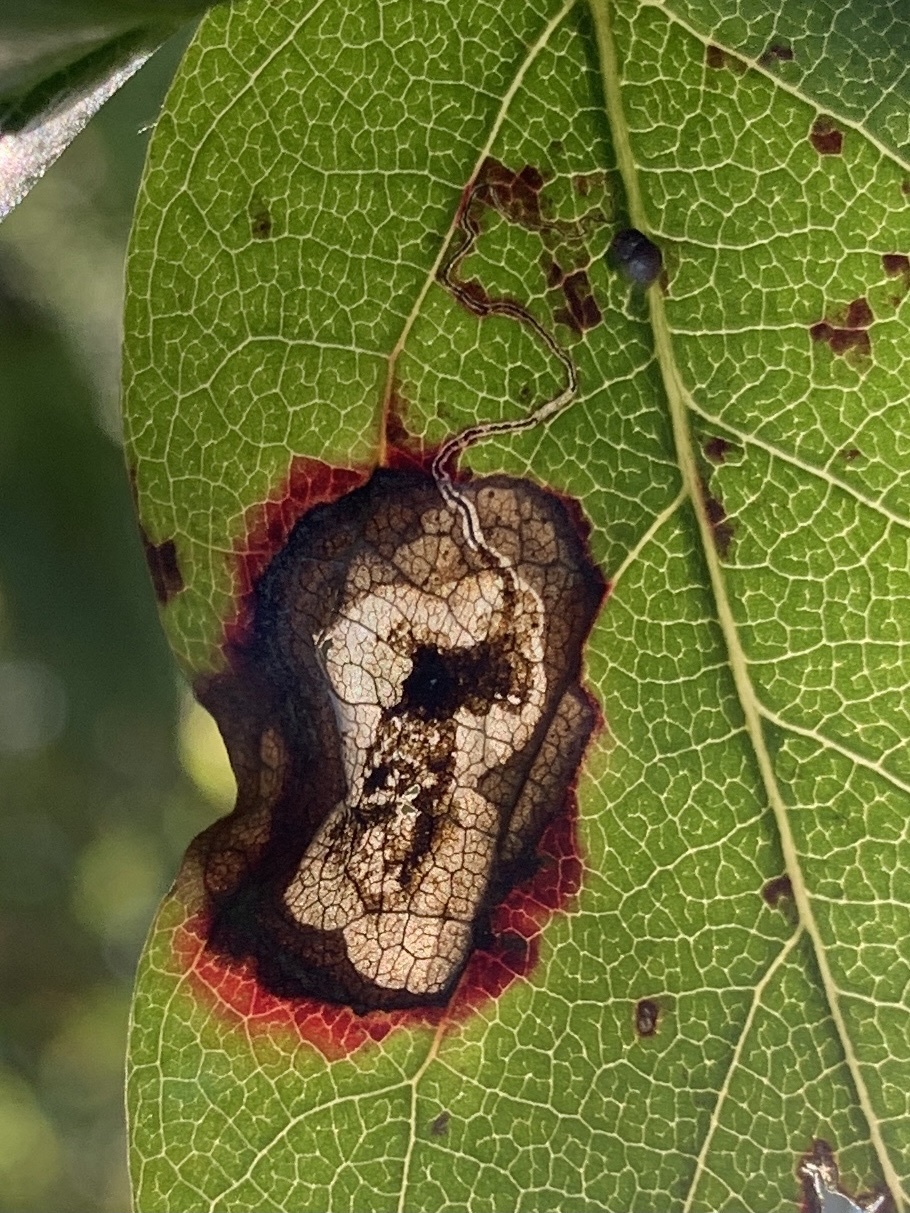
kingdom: Animalia
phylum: Arthropoda
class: Insecta
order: Lepidoptera
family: Nepticulidae
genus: Ectoedemia
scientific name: Ectoedemia nyssaefoliella
